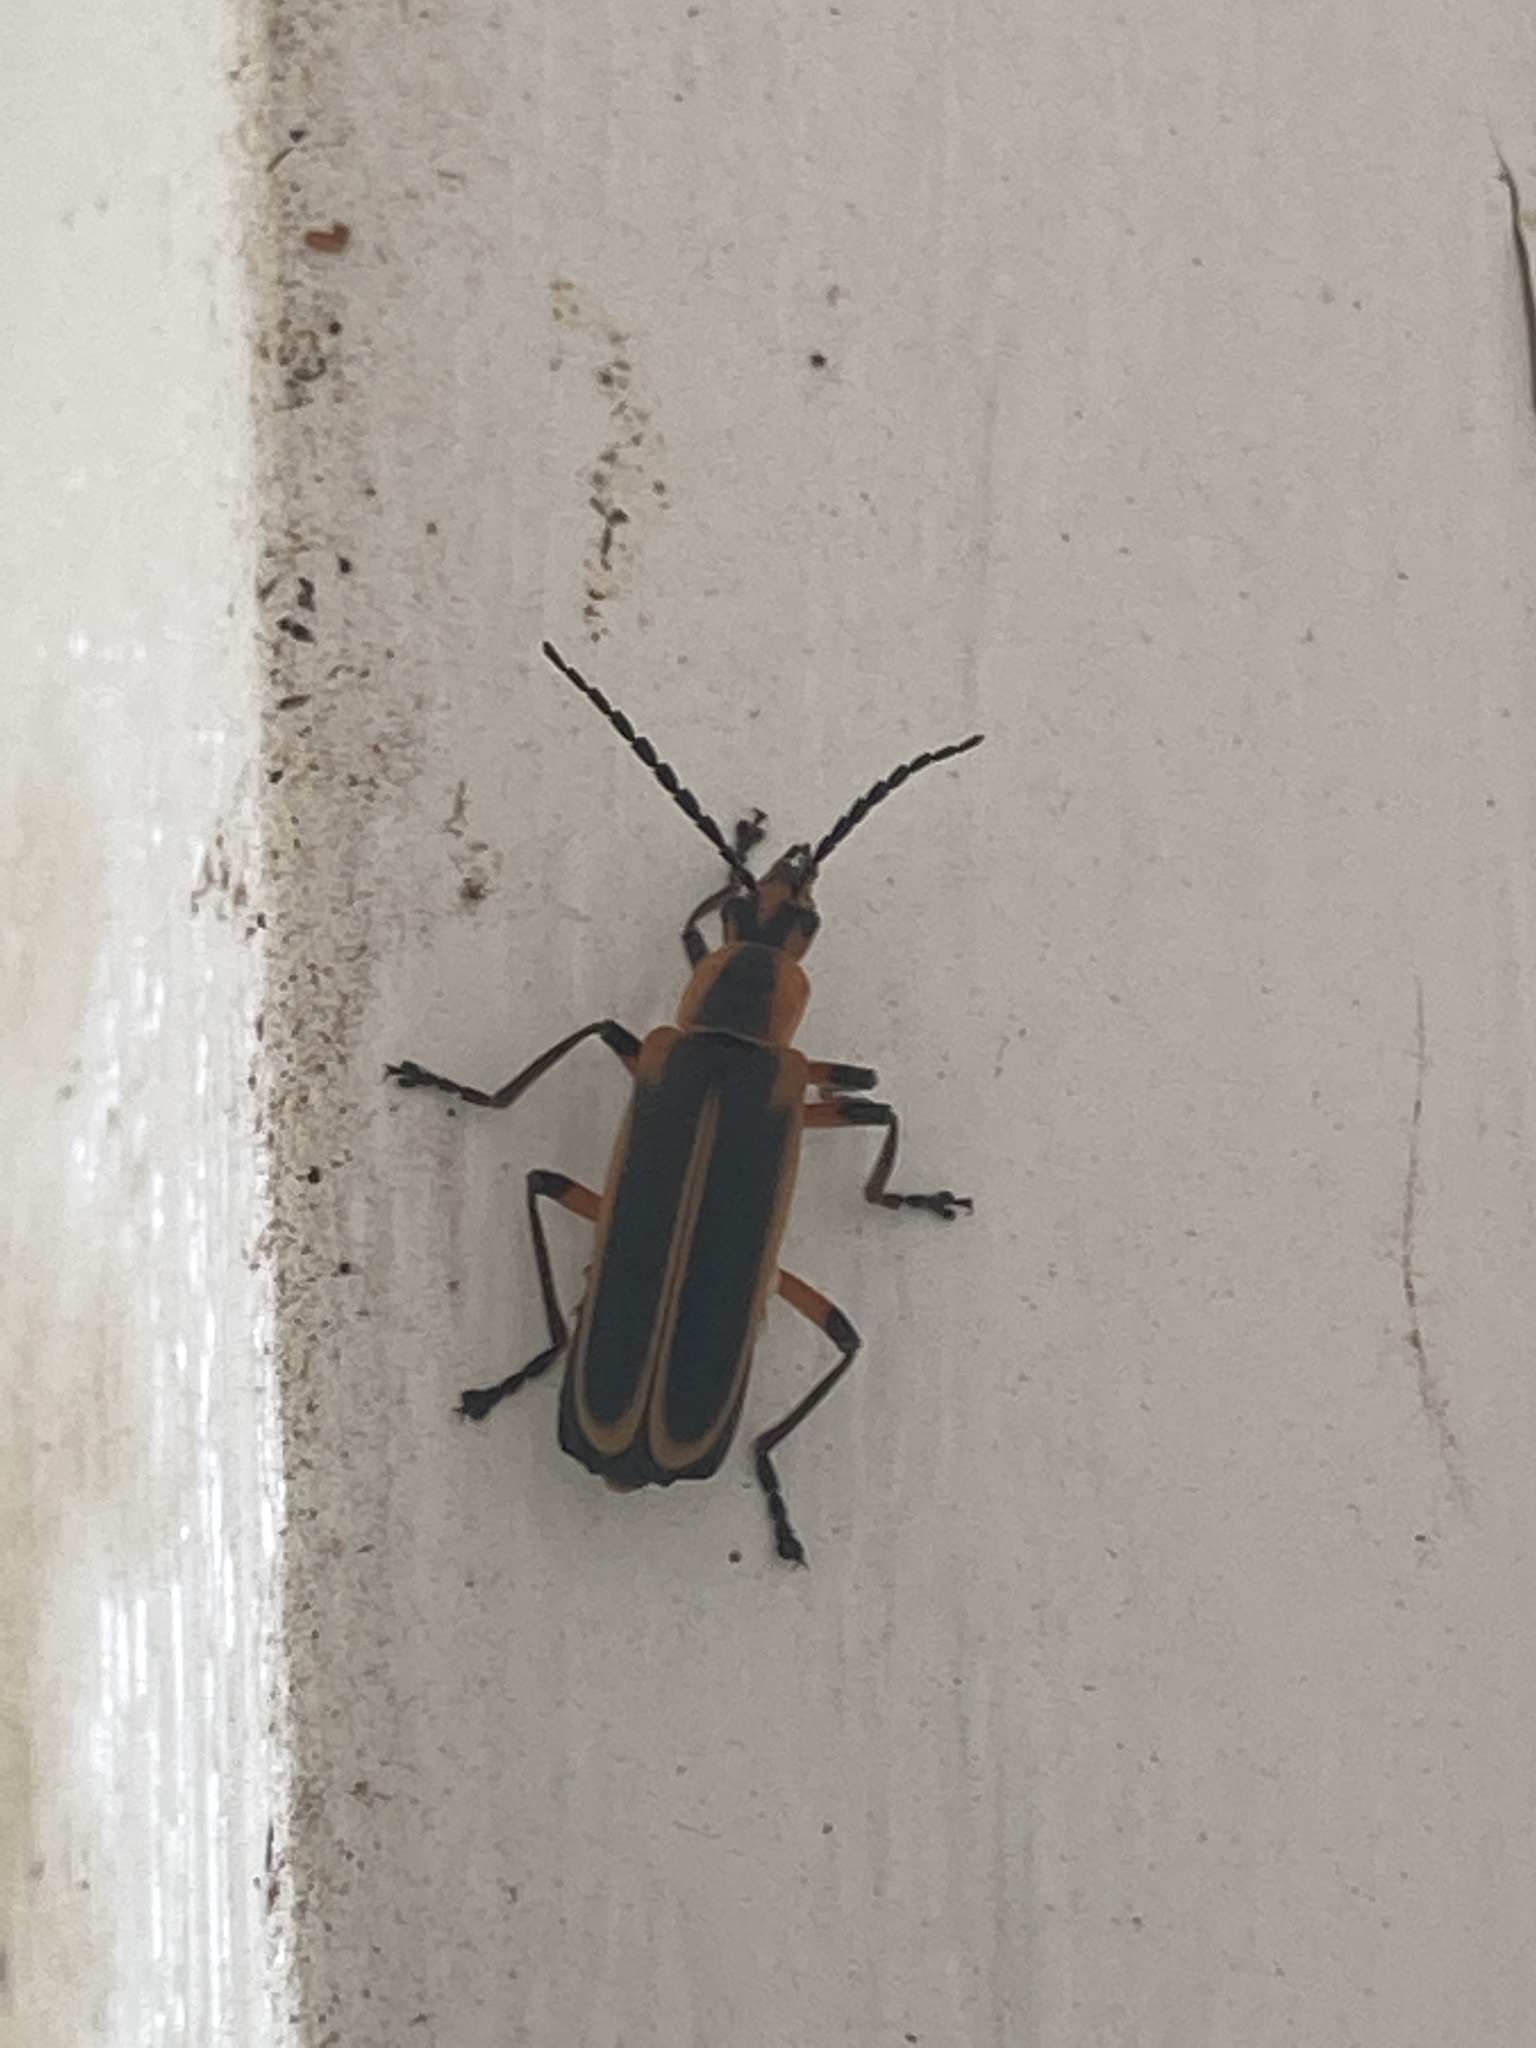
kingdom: Animalia
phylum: Arthropoda
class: Insecta
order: Coleoptera
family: Cantharidae
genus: Chauliognathus
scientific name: Chauliognathus marginatus
